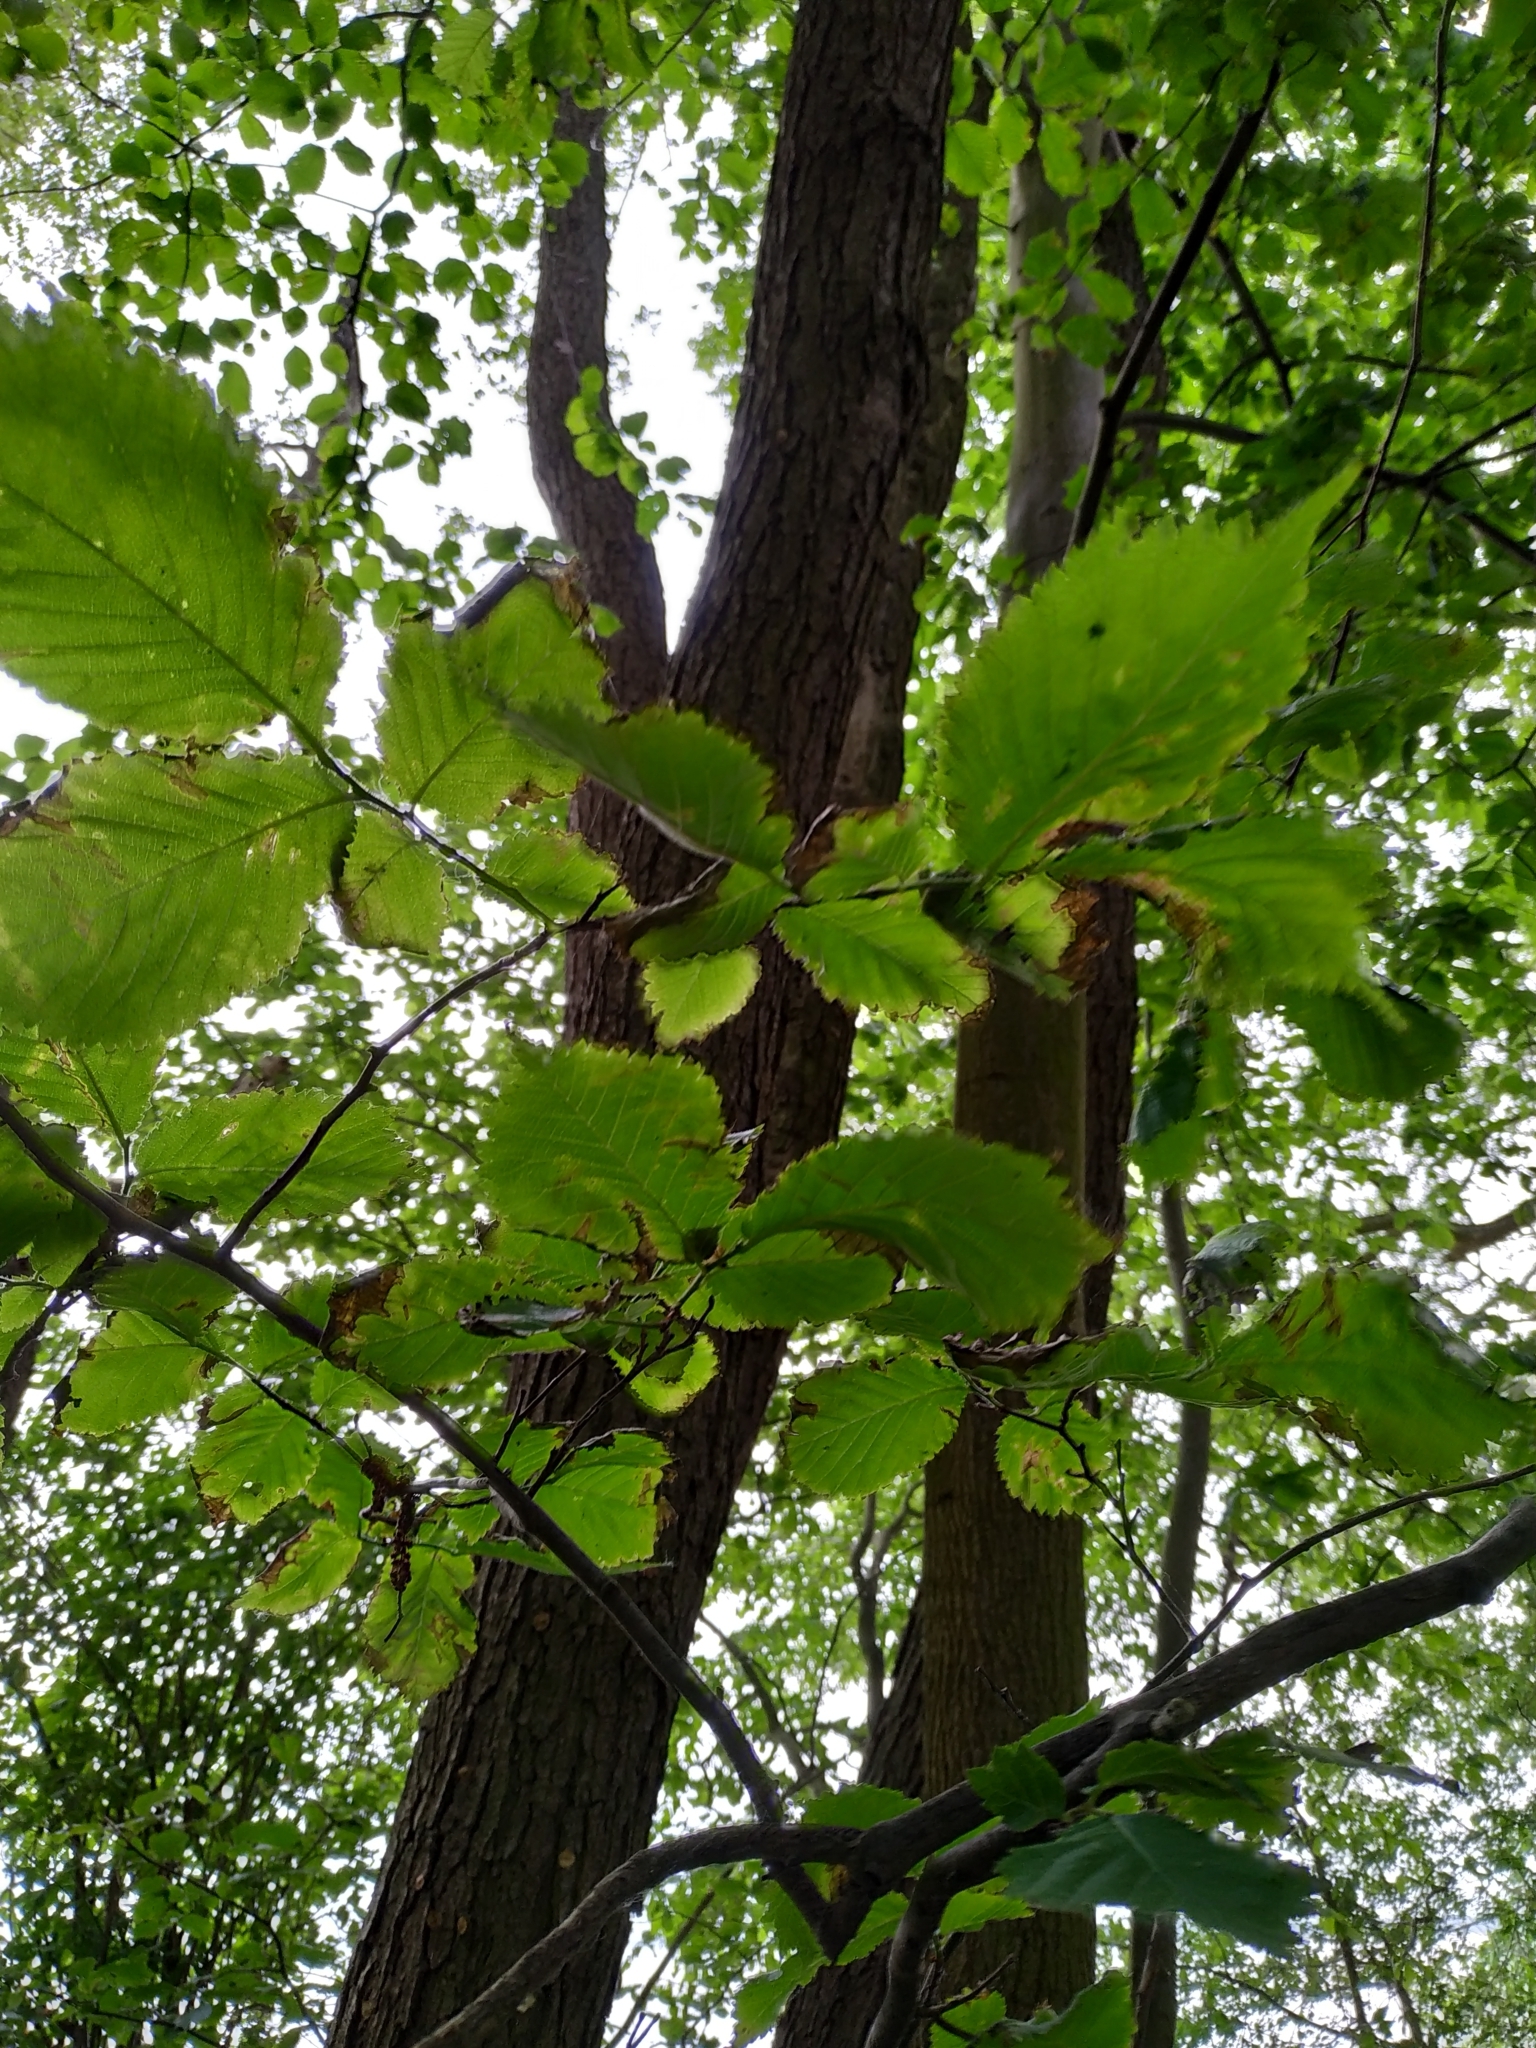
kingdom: Plantae
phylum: Tracheophyta
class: Magnoliopsida
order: Rosales
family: Ulmaceae
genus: Ulmus
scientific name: Ulmus glabra
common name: Wych elm
